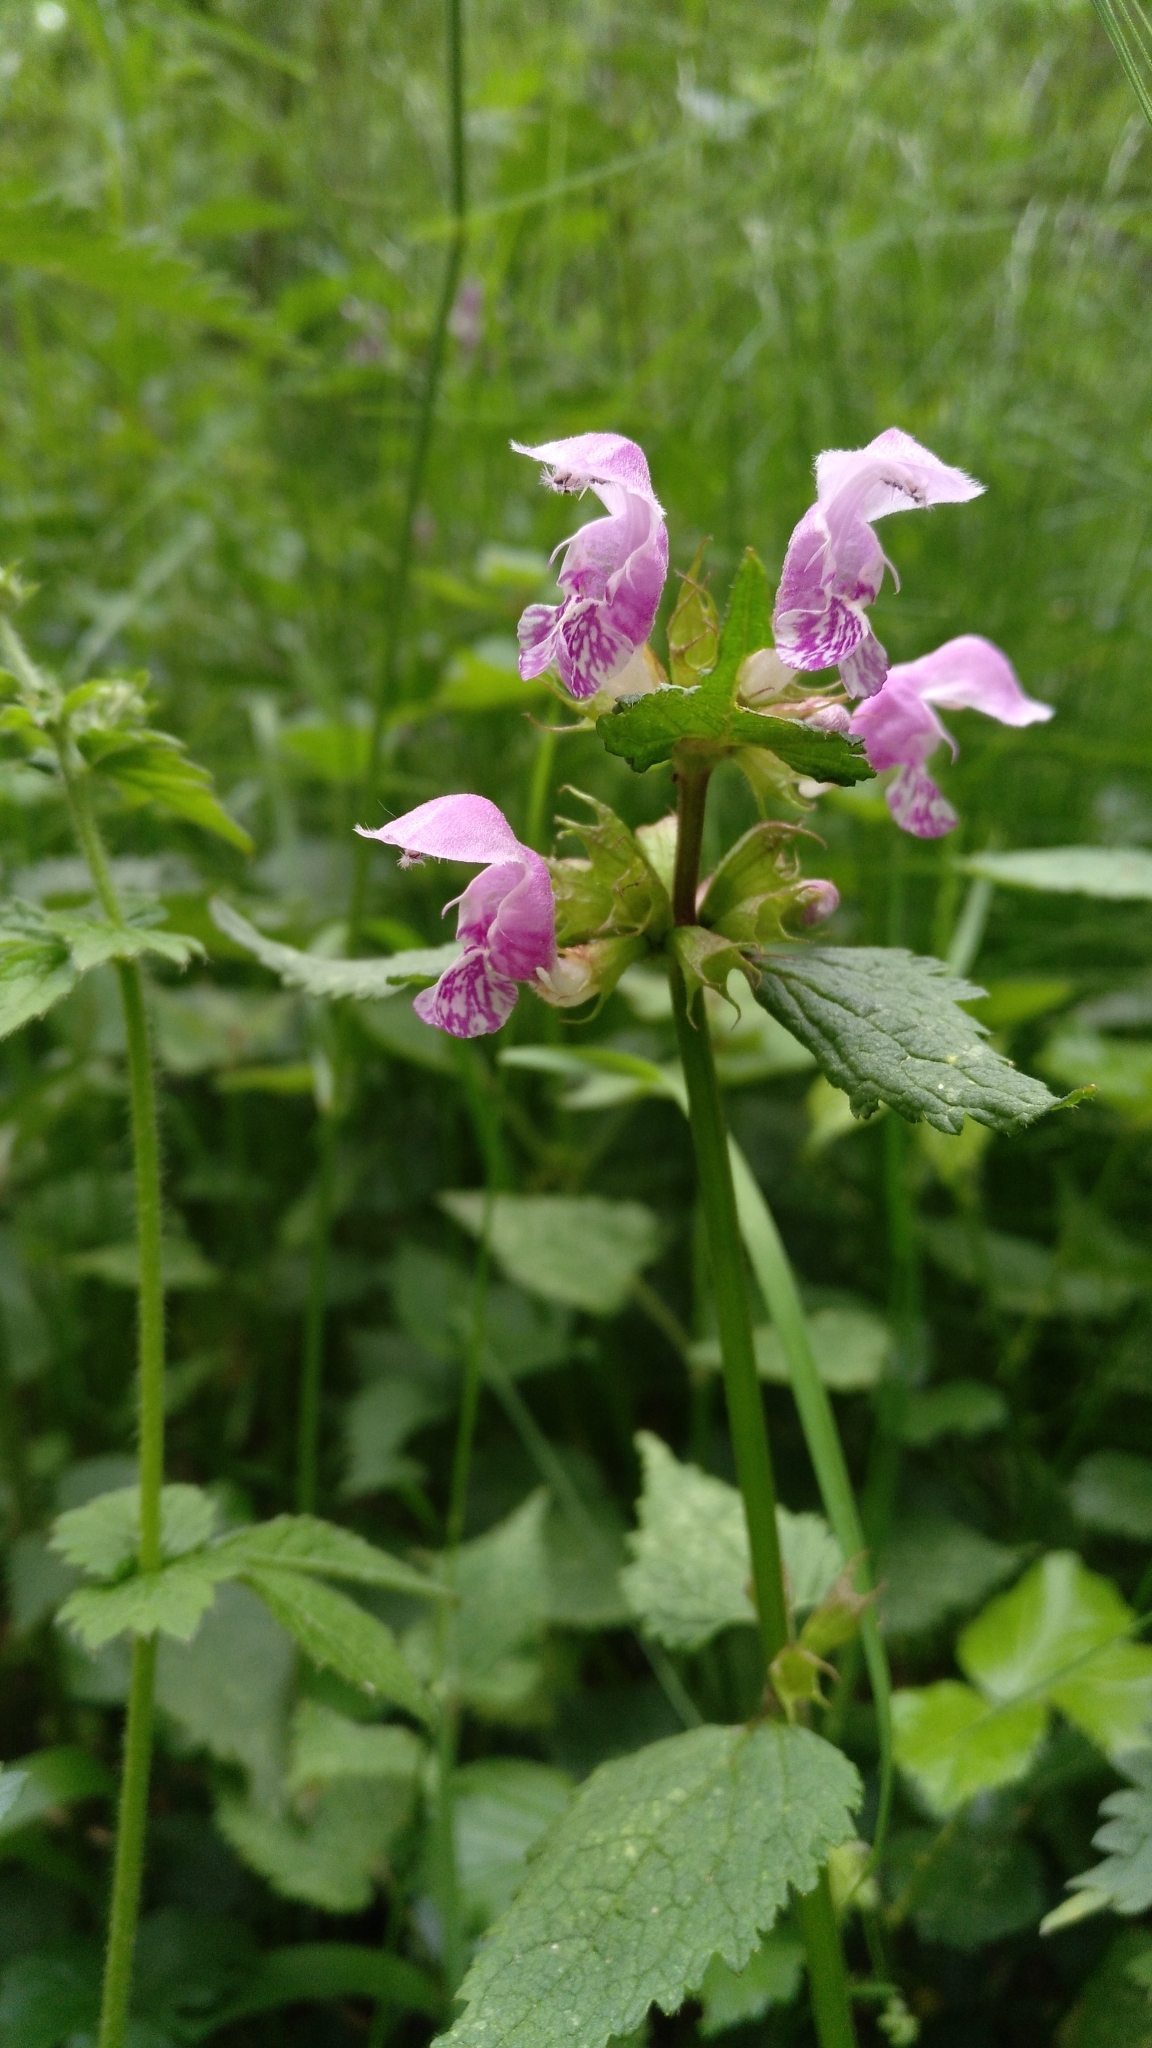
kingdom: Plantae
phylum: Tracheophyta
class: Magnoliopsida
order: Lamiales
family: Lamiaceae
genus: Lamium
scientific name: Lamium maculatum
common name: Spotted dead-nettle
